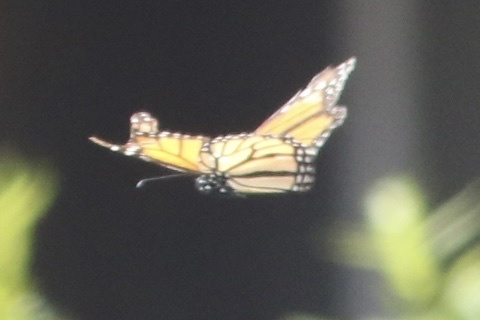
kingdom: Animalia
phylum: Arthropoda
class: Insecta
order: Lepidoptera
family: Nymphalidae
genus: Danaus
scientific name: Danaus plexippus
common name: Monarch
